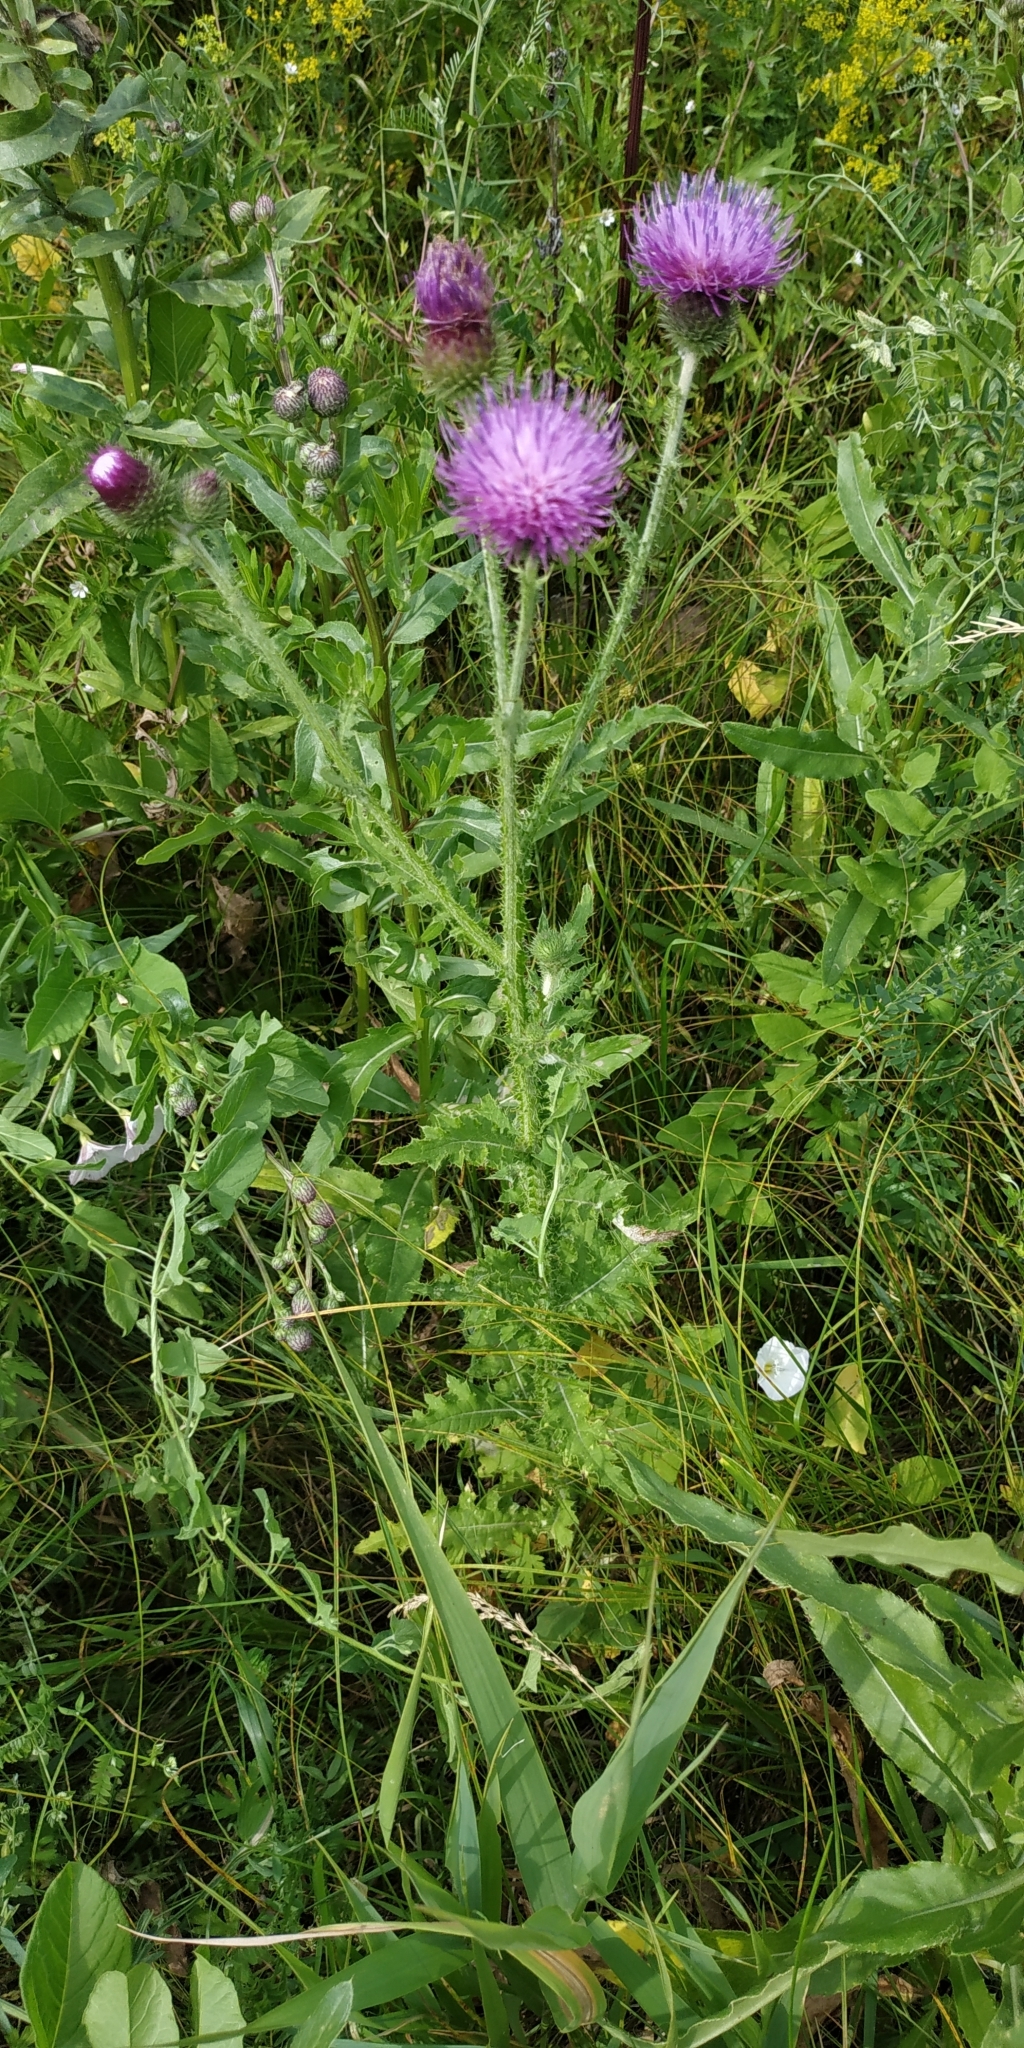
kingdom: Plantae
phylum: Tracheophyta
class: Magnoliopsida
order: Asterales
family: Asteraceae
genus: Carduus
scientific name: Carduus crispus
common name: Welted thistle
